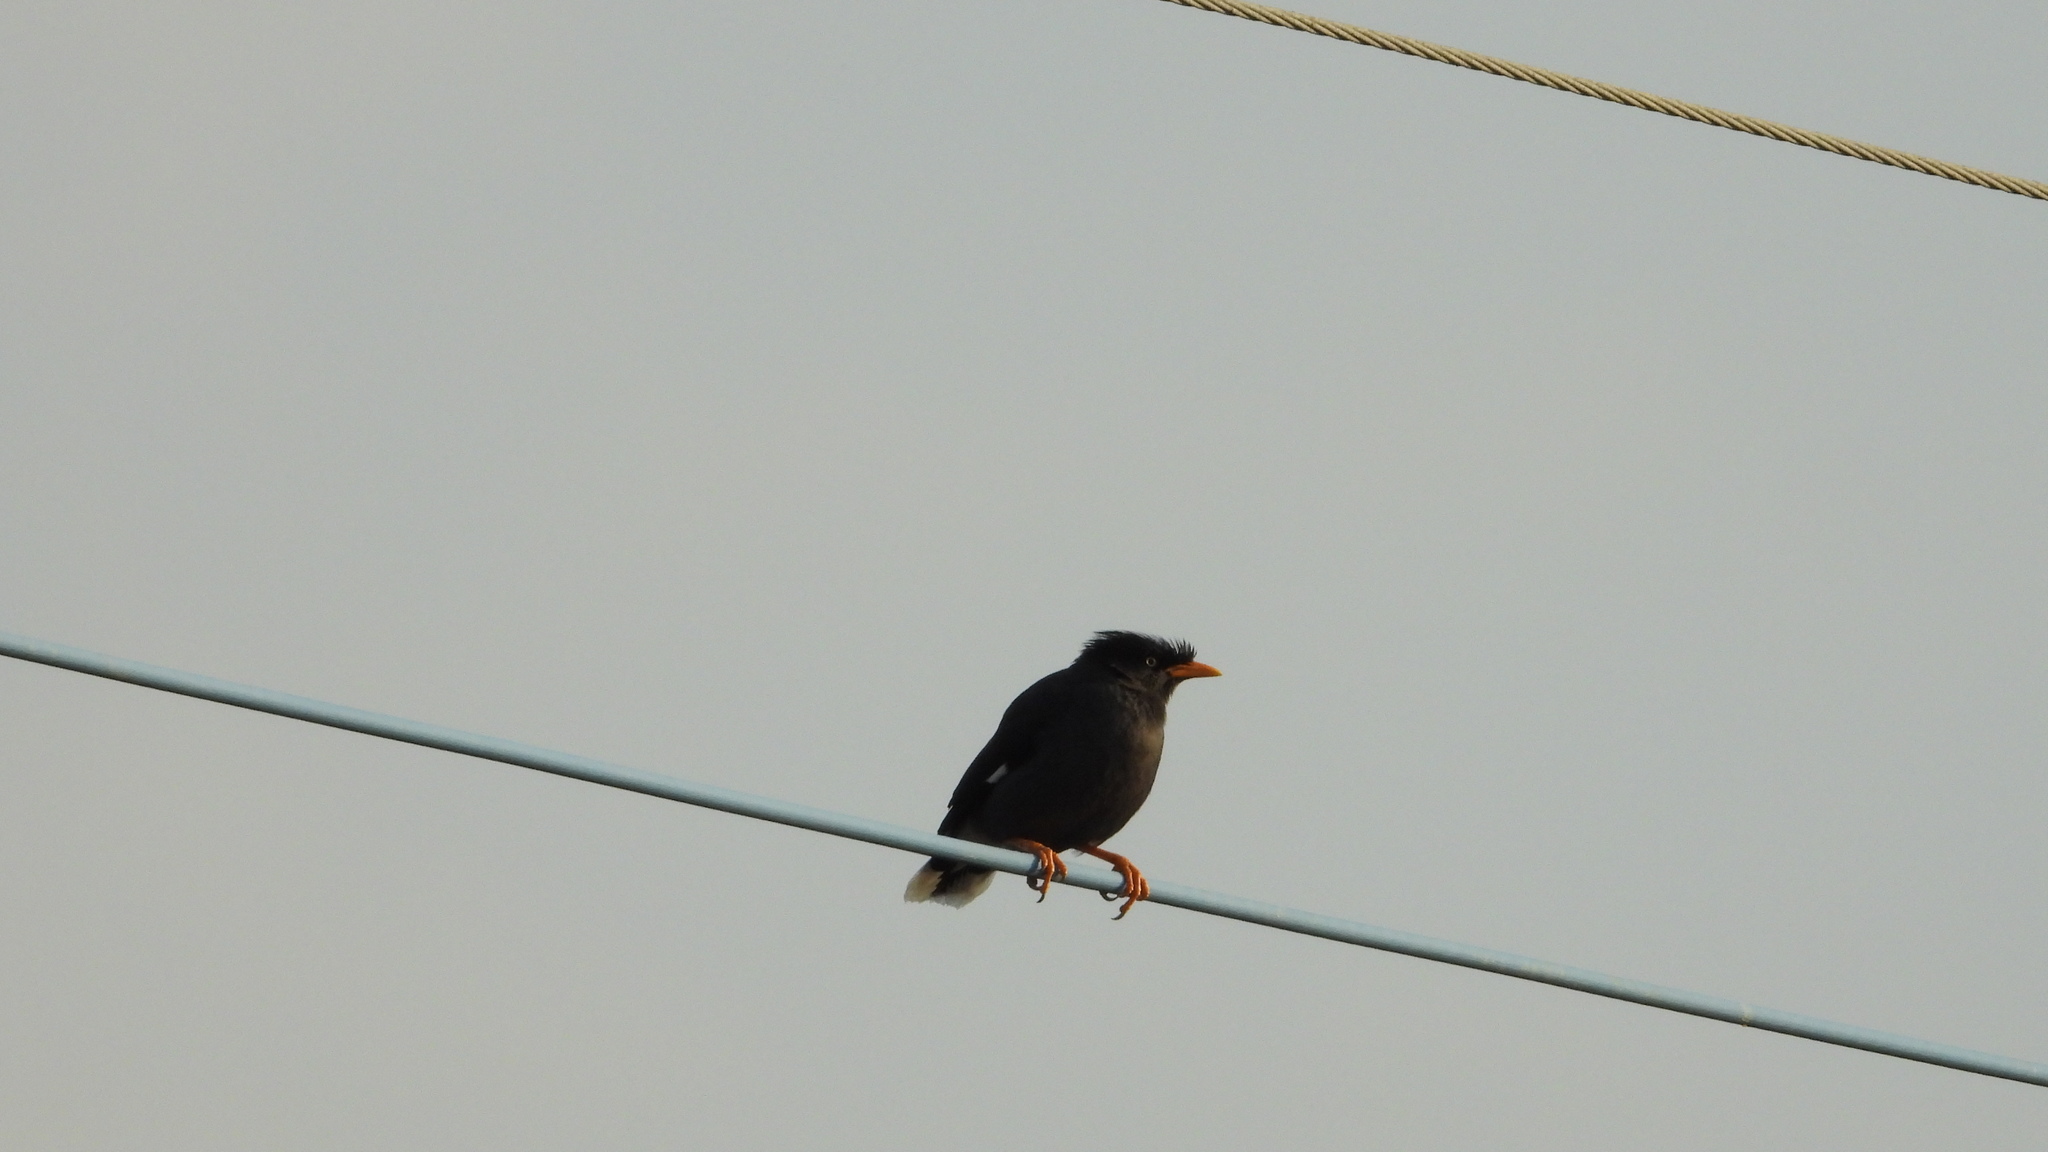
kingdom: Animalia
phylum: Chordata
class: Aves
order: Passeriformes
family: Sturnidae
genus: Acridotheres
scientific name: Acridotheres javanicus
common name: Javan myna
